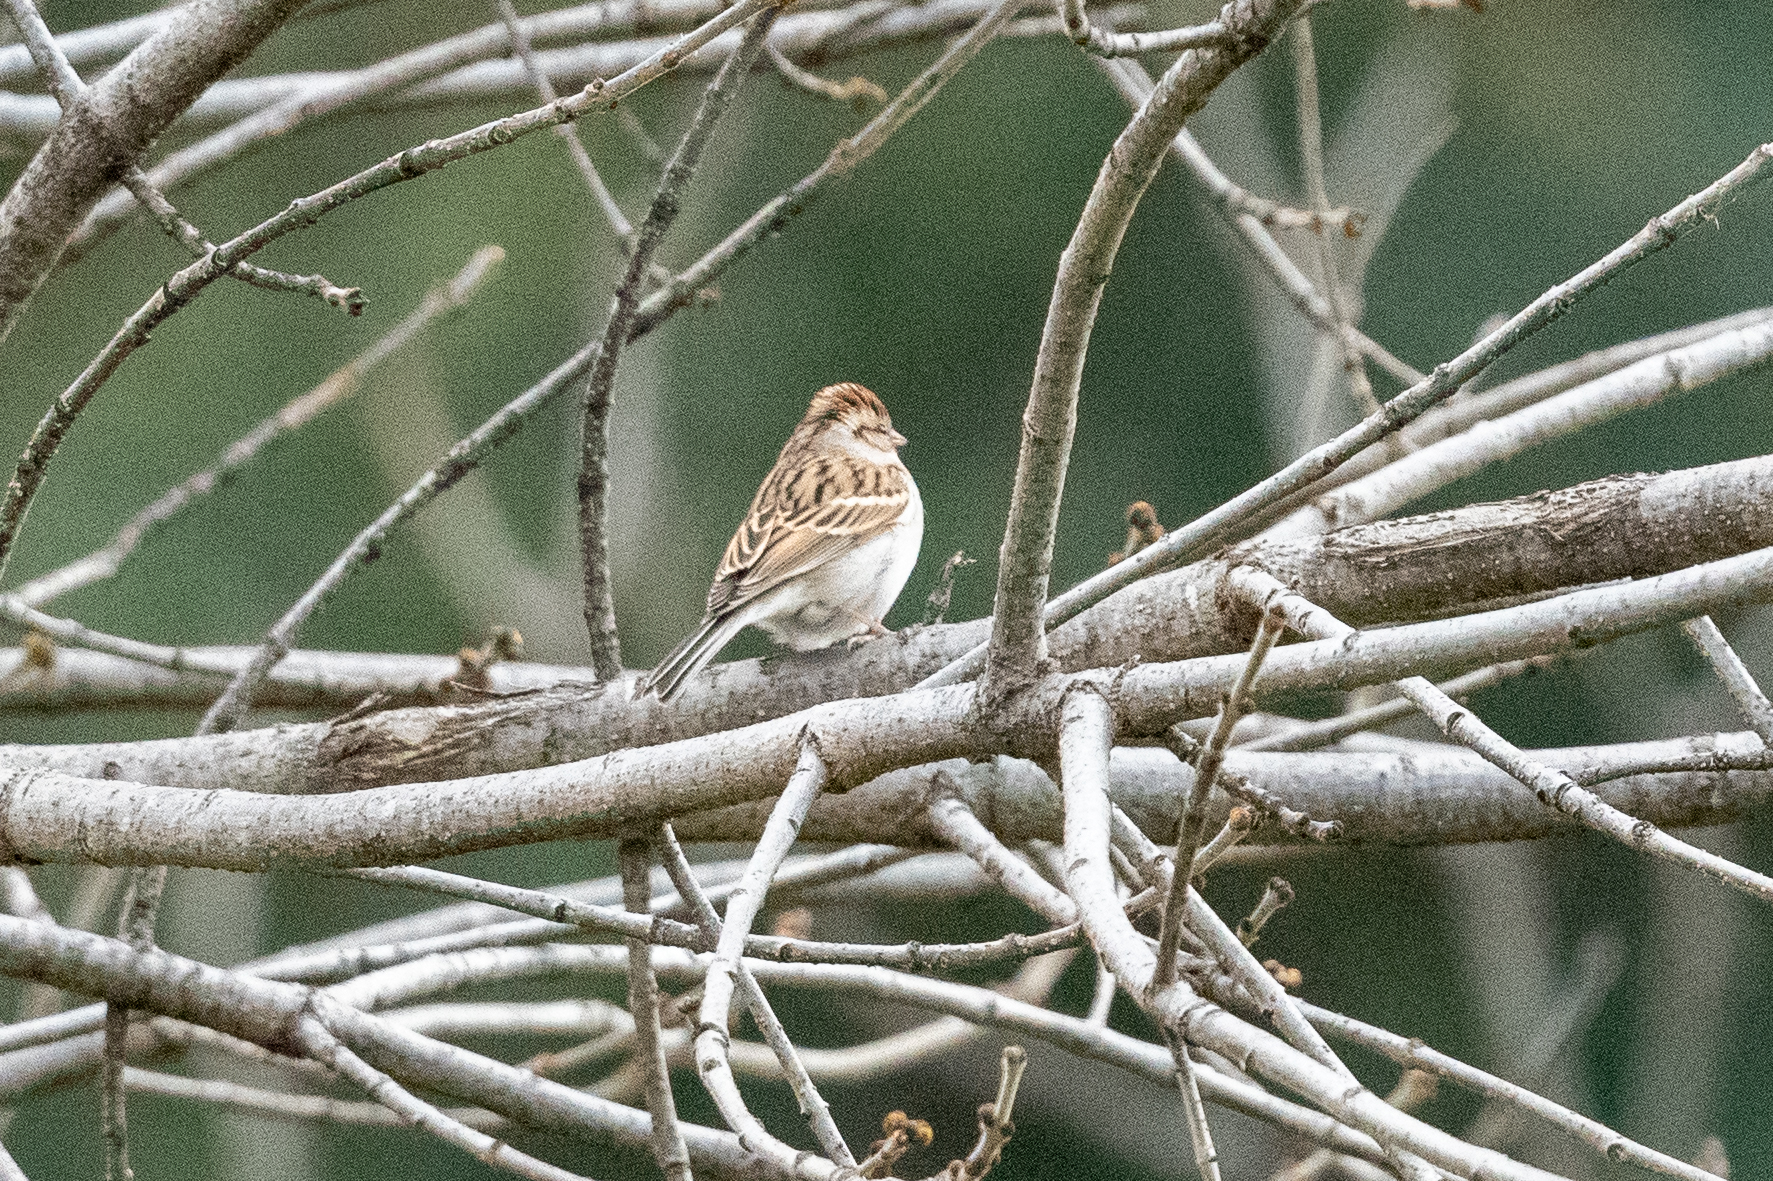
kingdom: Animalia
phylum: Chordata
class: Aves
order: Passeriformes
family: Passerellidae
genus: Spizella
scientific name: Spizella passerina
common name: Chipping sparrow
